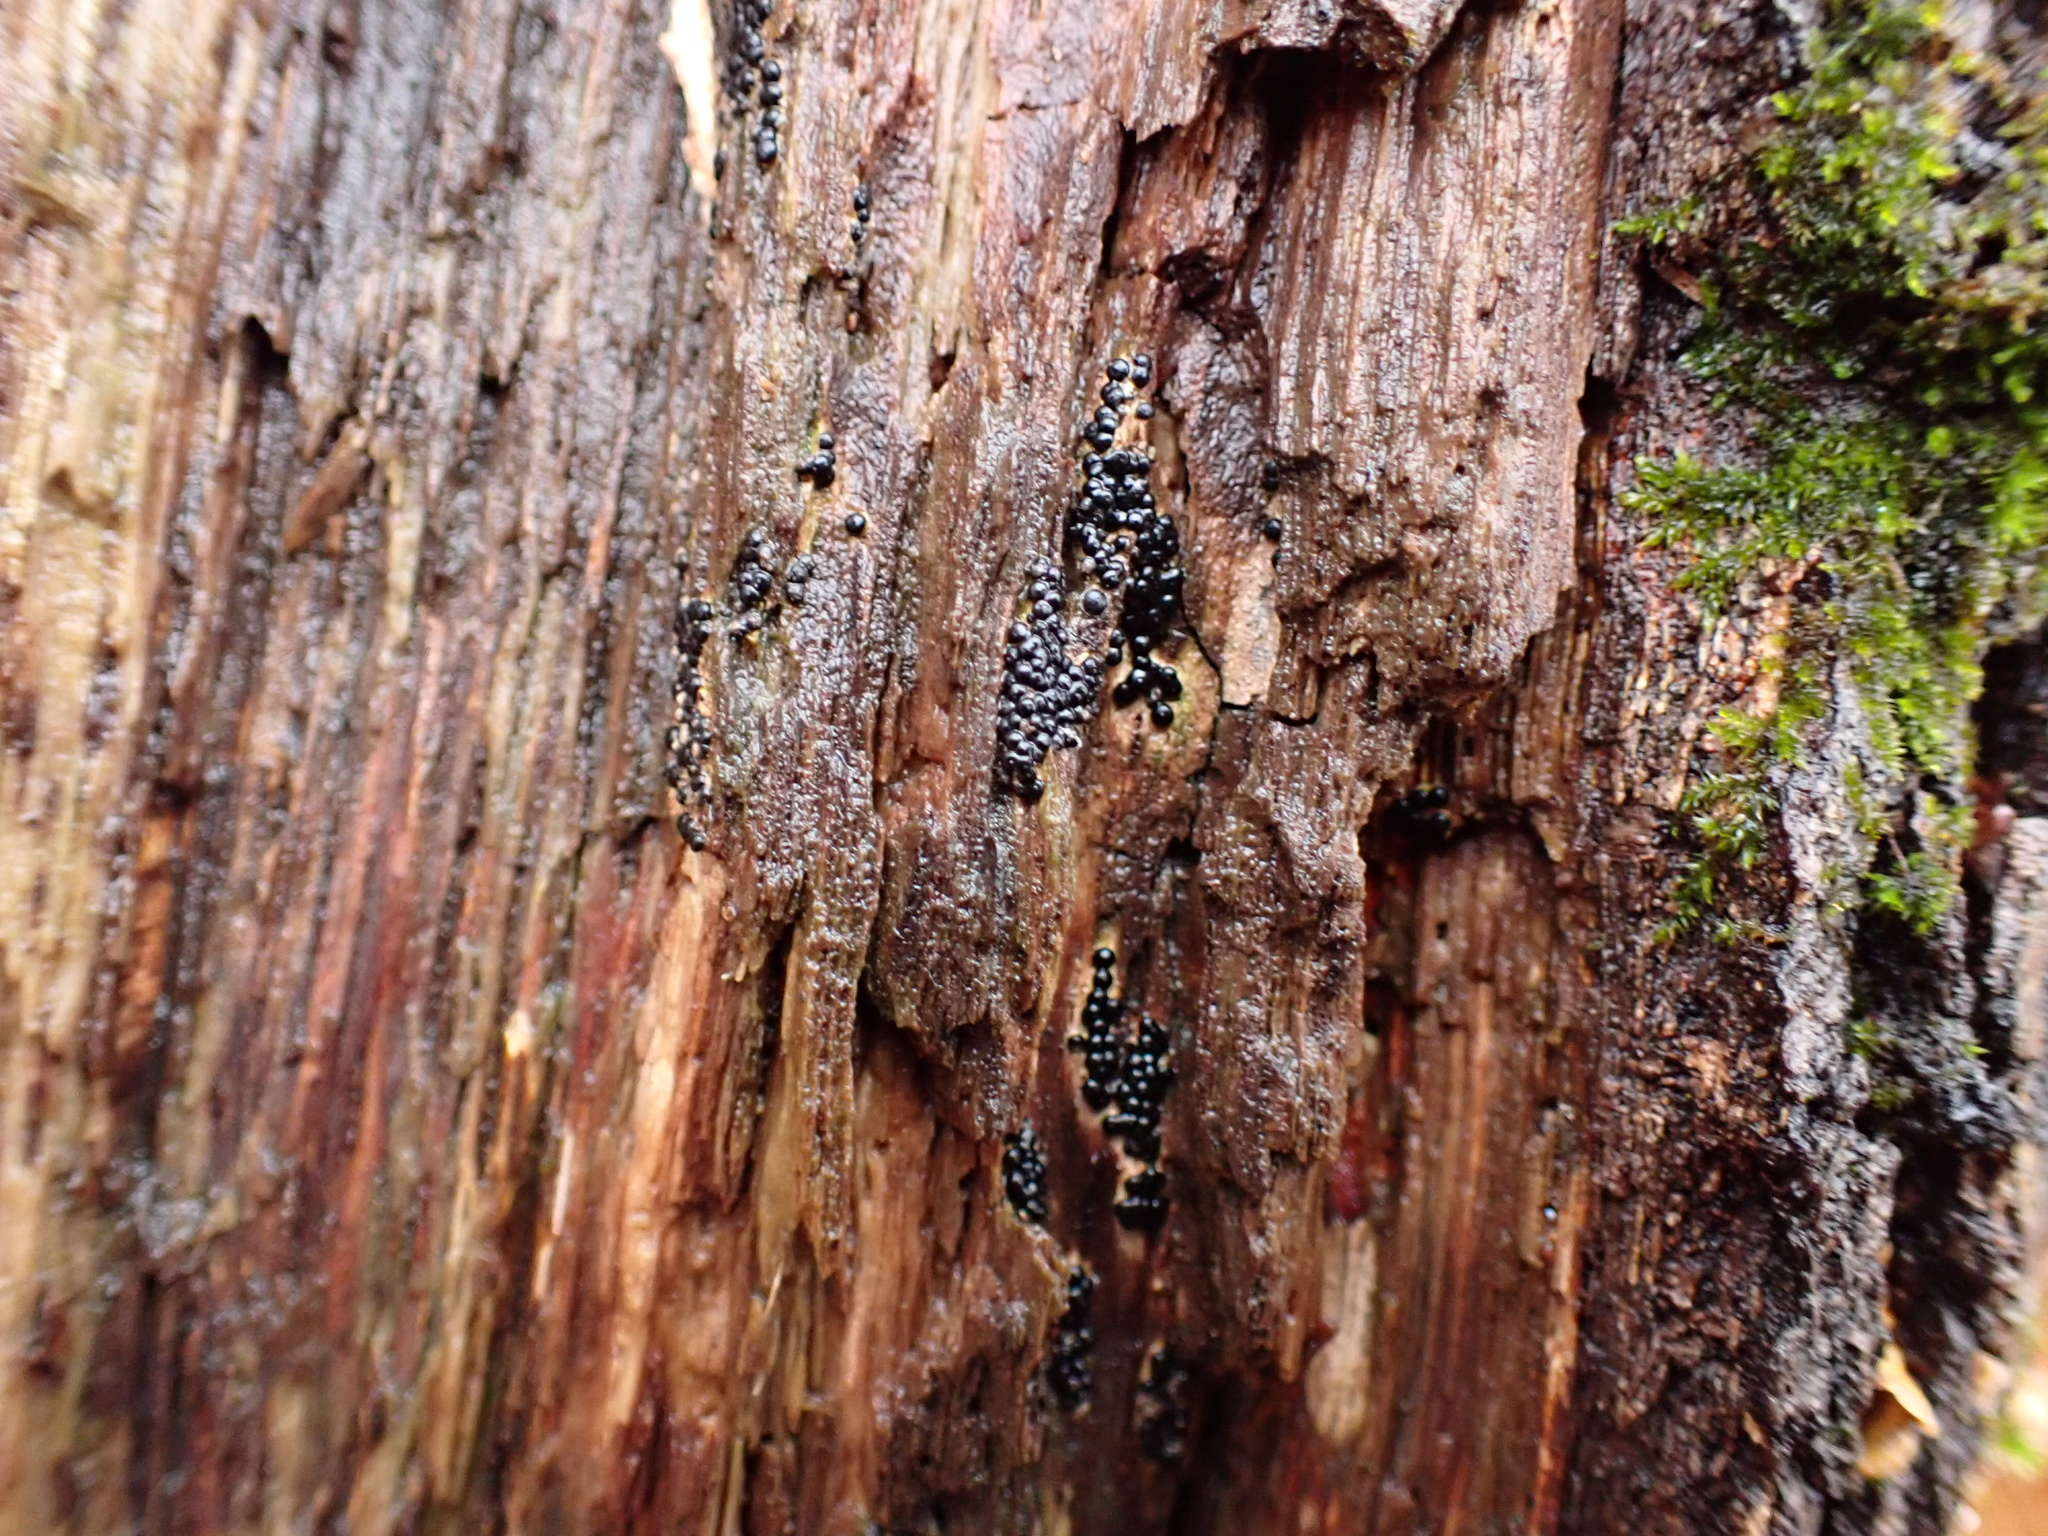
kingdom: Fungi
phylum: Ascomycota
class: Sordariomycetes
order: Xylariales
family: Xylariaceae
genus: Rosellinia
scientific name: Rosellinia subiculata
